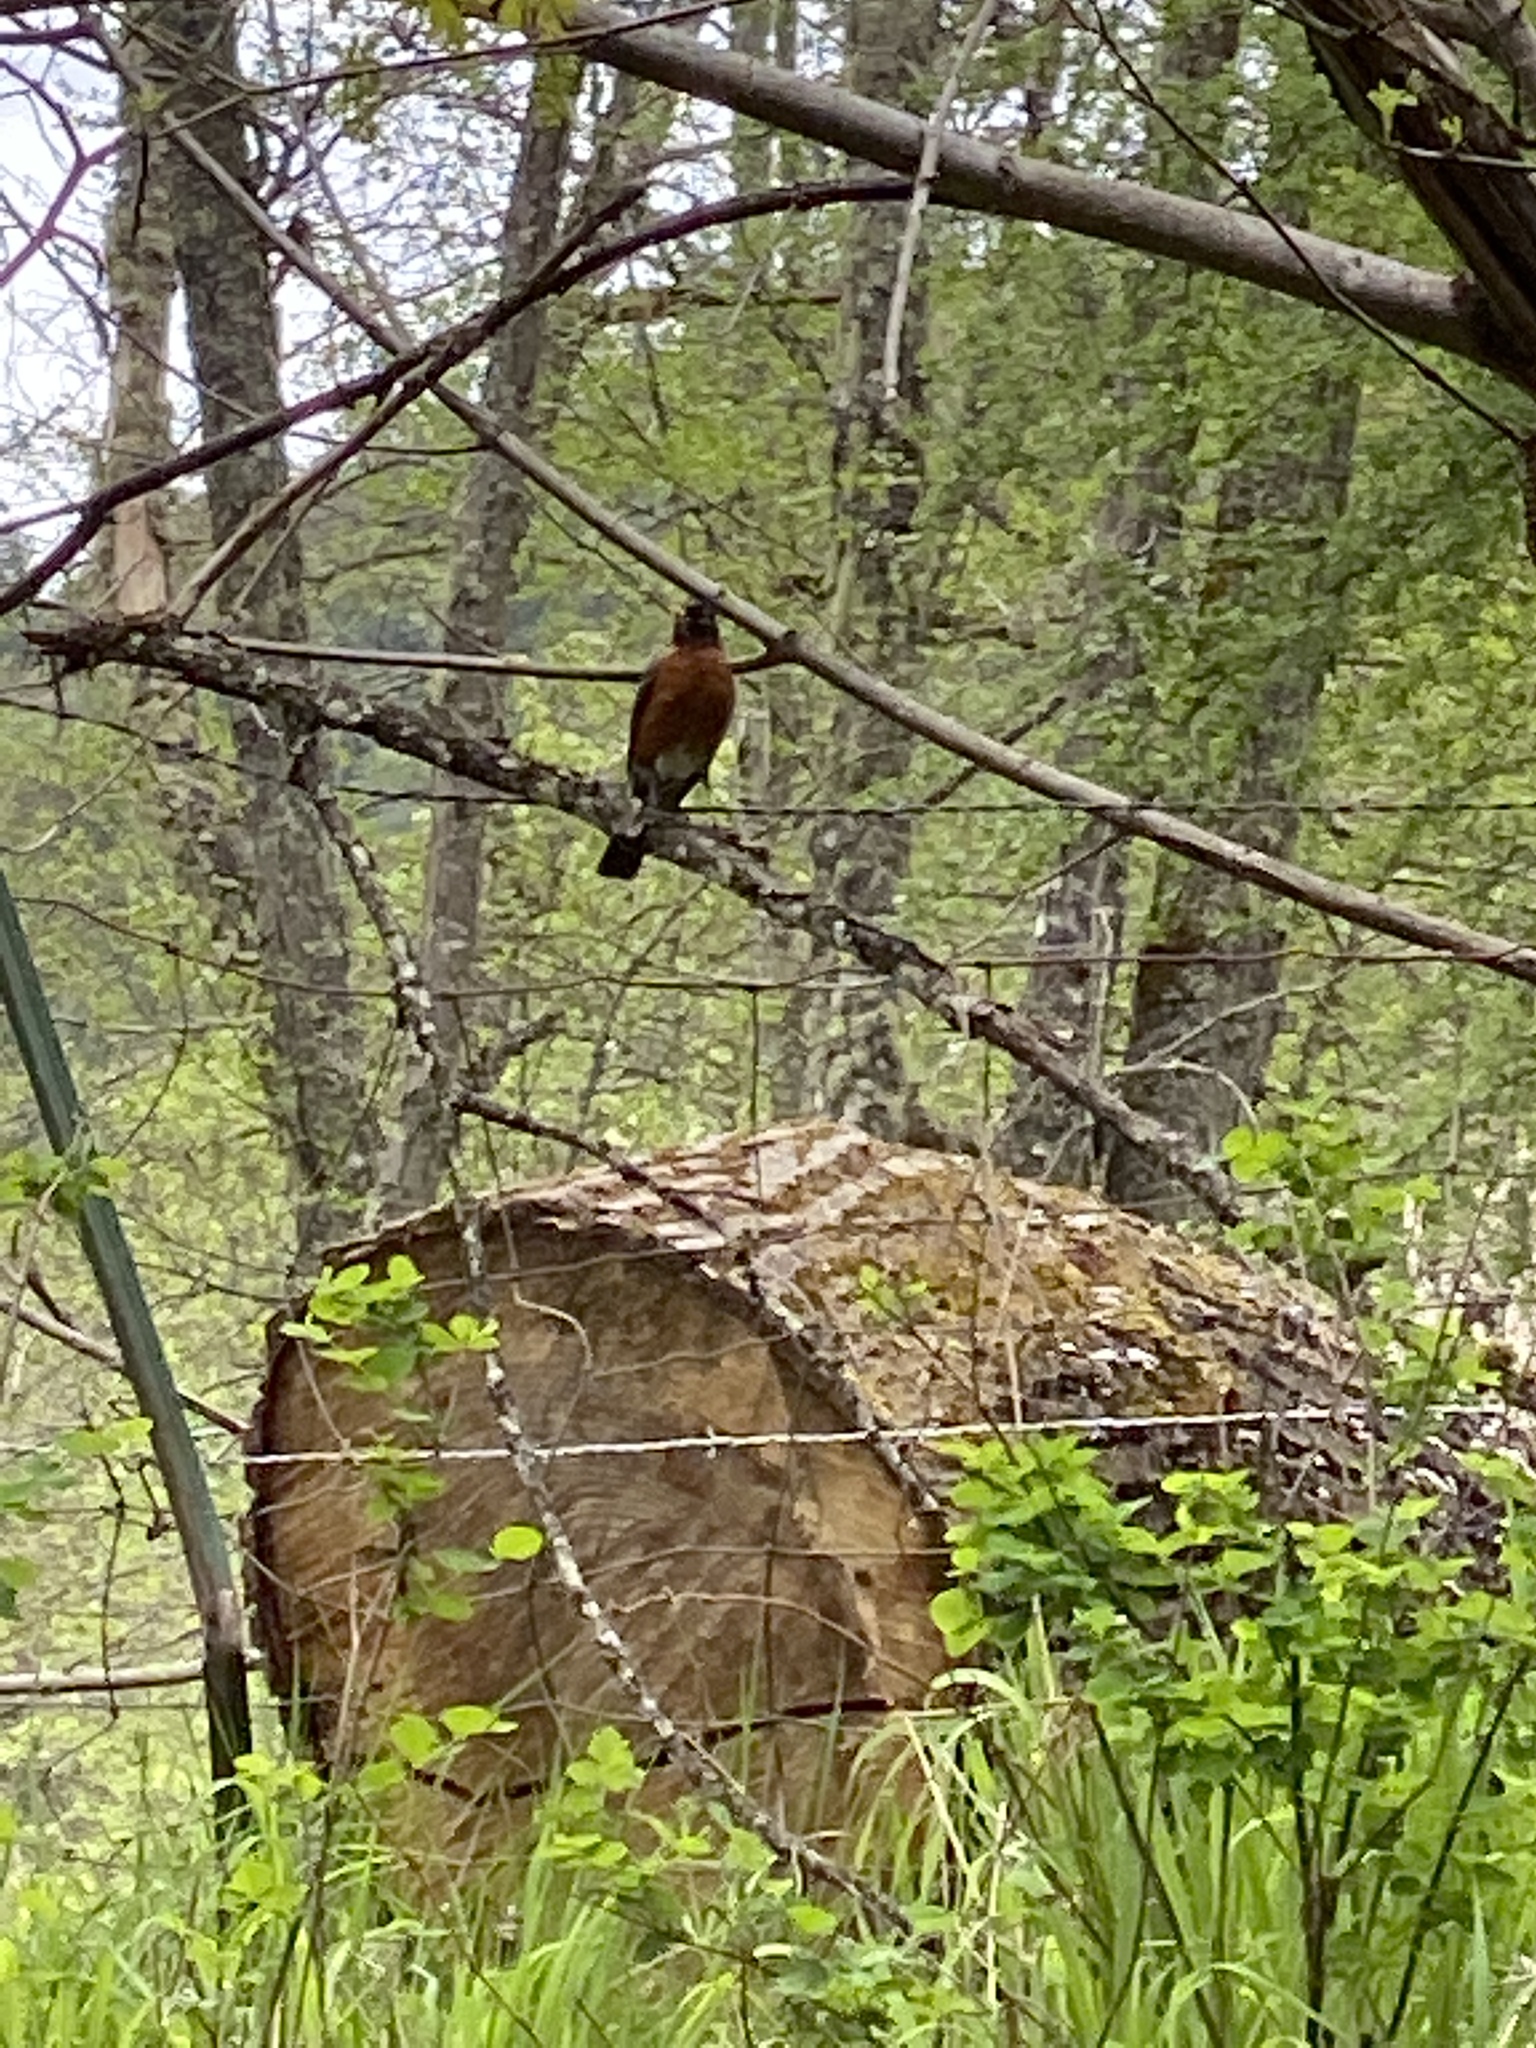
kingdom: Animalia
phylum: Chordata
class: Aves
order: Passeriformes
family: Turdidae
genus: Turdus
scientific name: Turdus migratorius
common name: American robin
